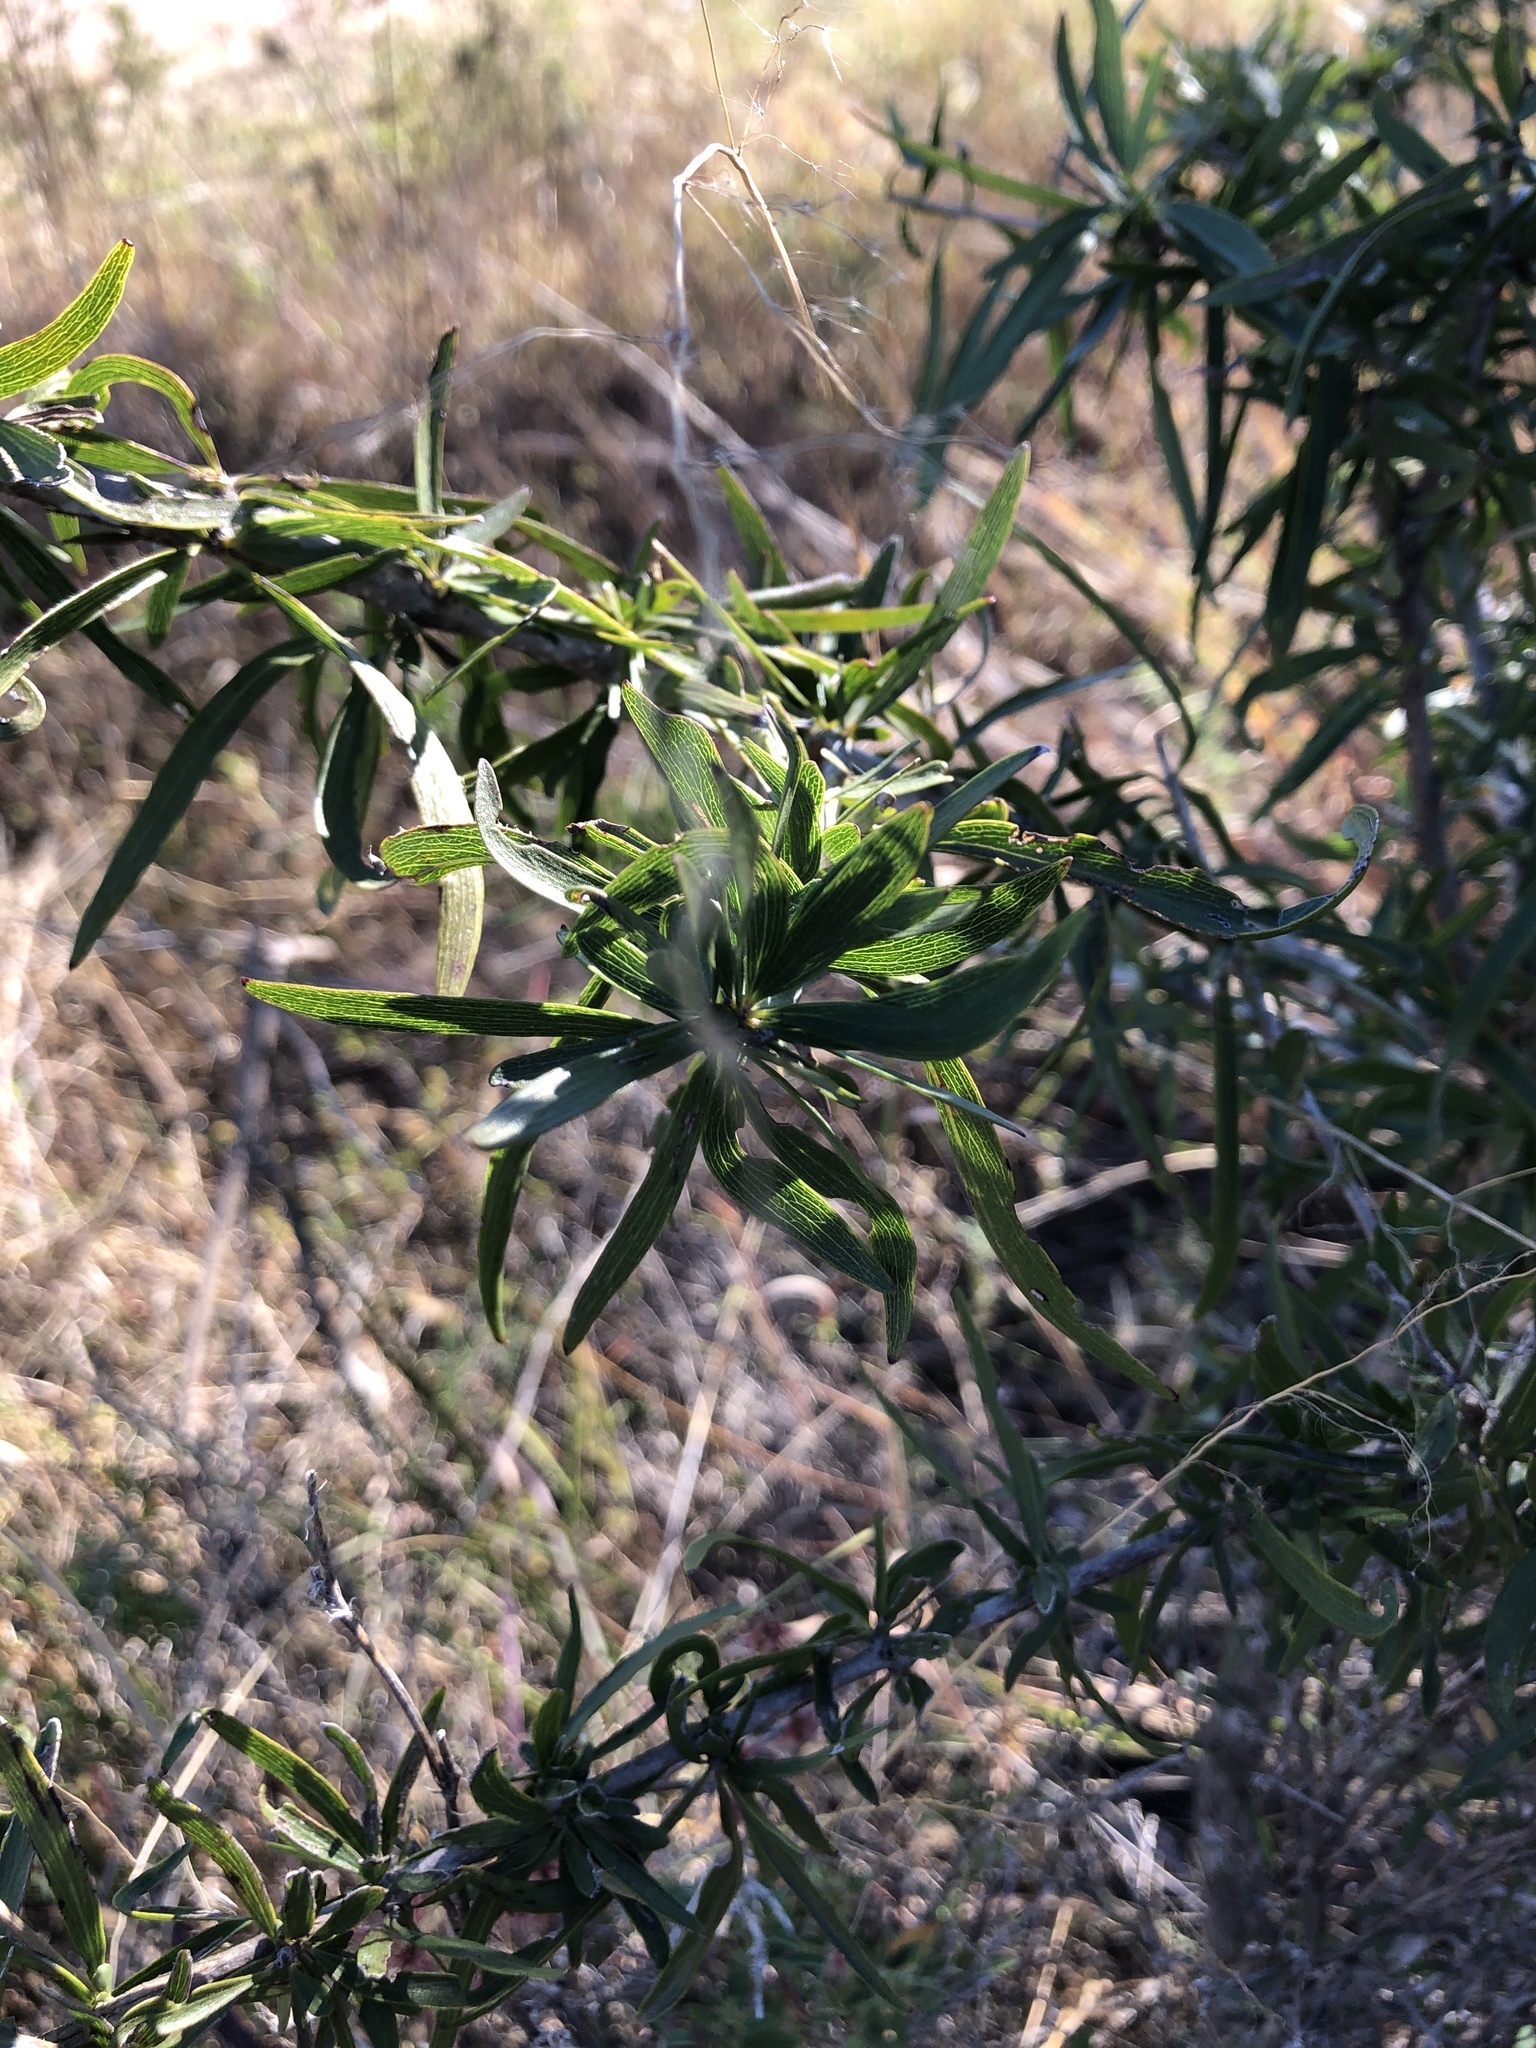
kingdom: Plantae
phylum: Tracheophyta
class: Magnoliopsida
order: Lamiales
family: Bignoniaceae
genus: Dolichandrone
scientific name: Dolichandrone alternifolia
